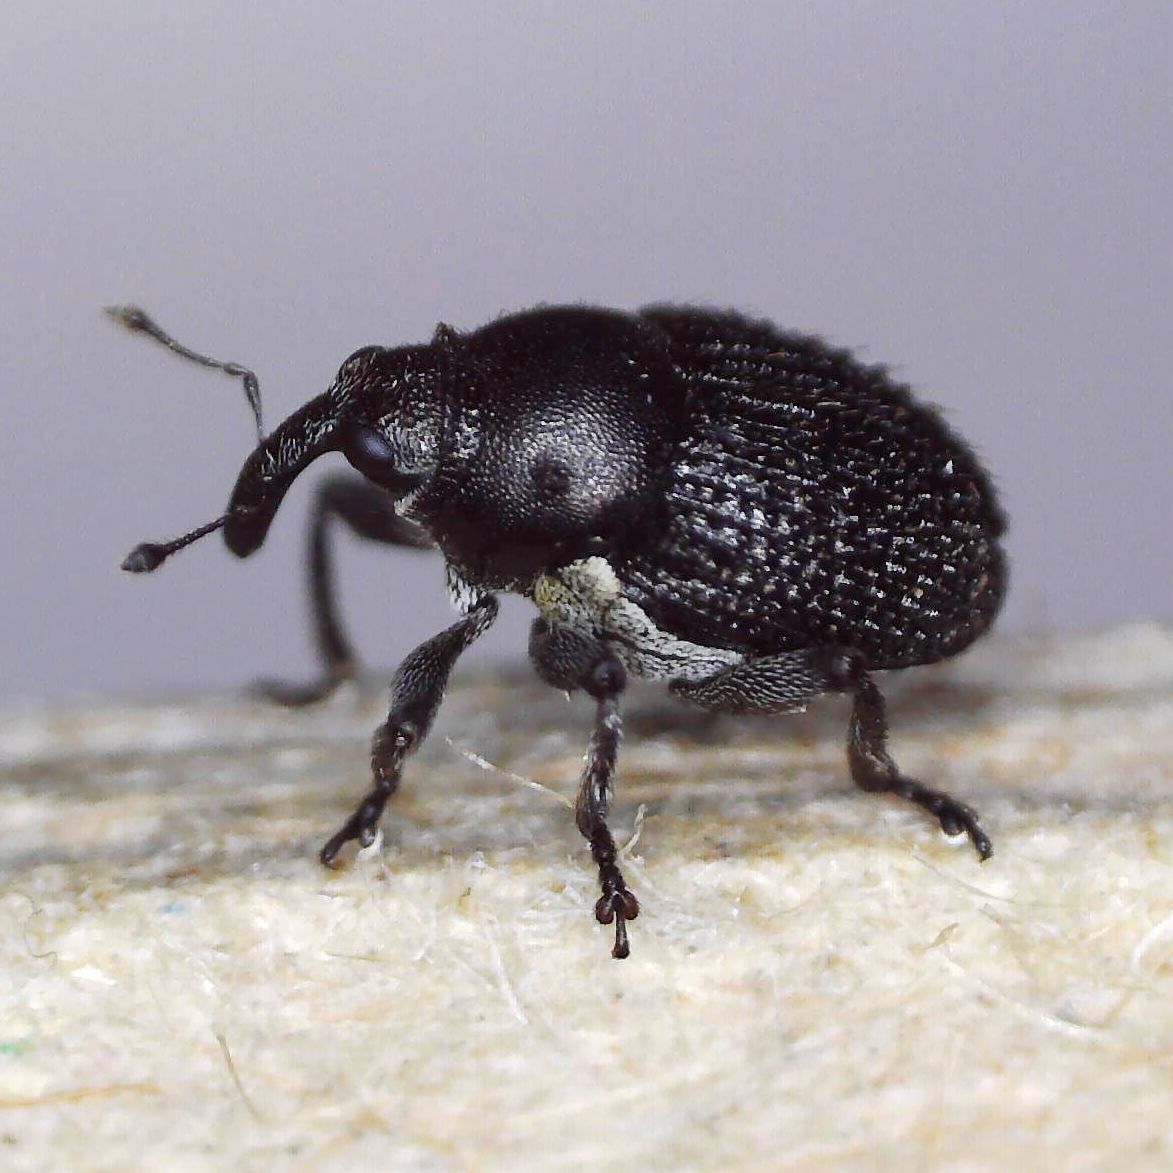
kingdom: Animalia
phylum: Arthropoda
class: Insecta
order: Coleoptera
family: Curculionidae
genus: Zacladus
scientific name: Zacladus exiguus
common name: Bloody cranesbill weevil
